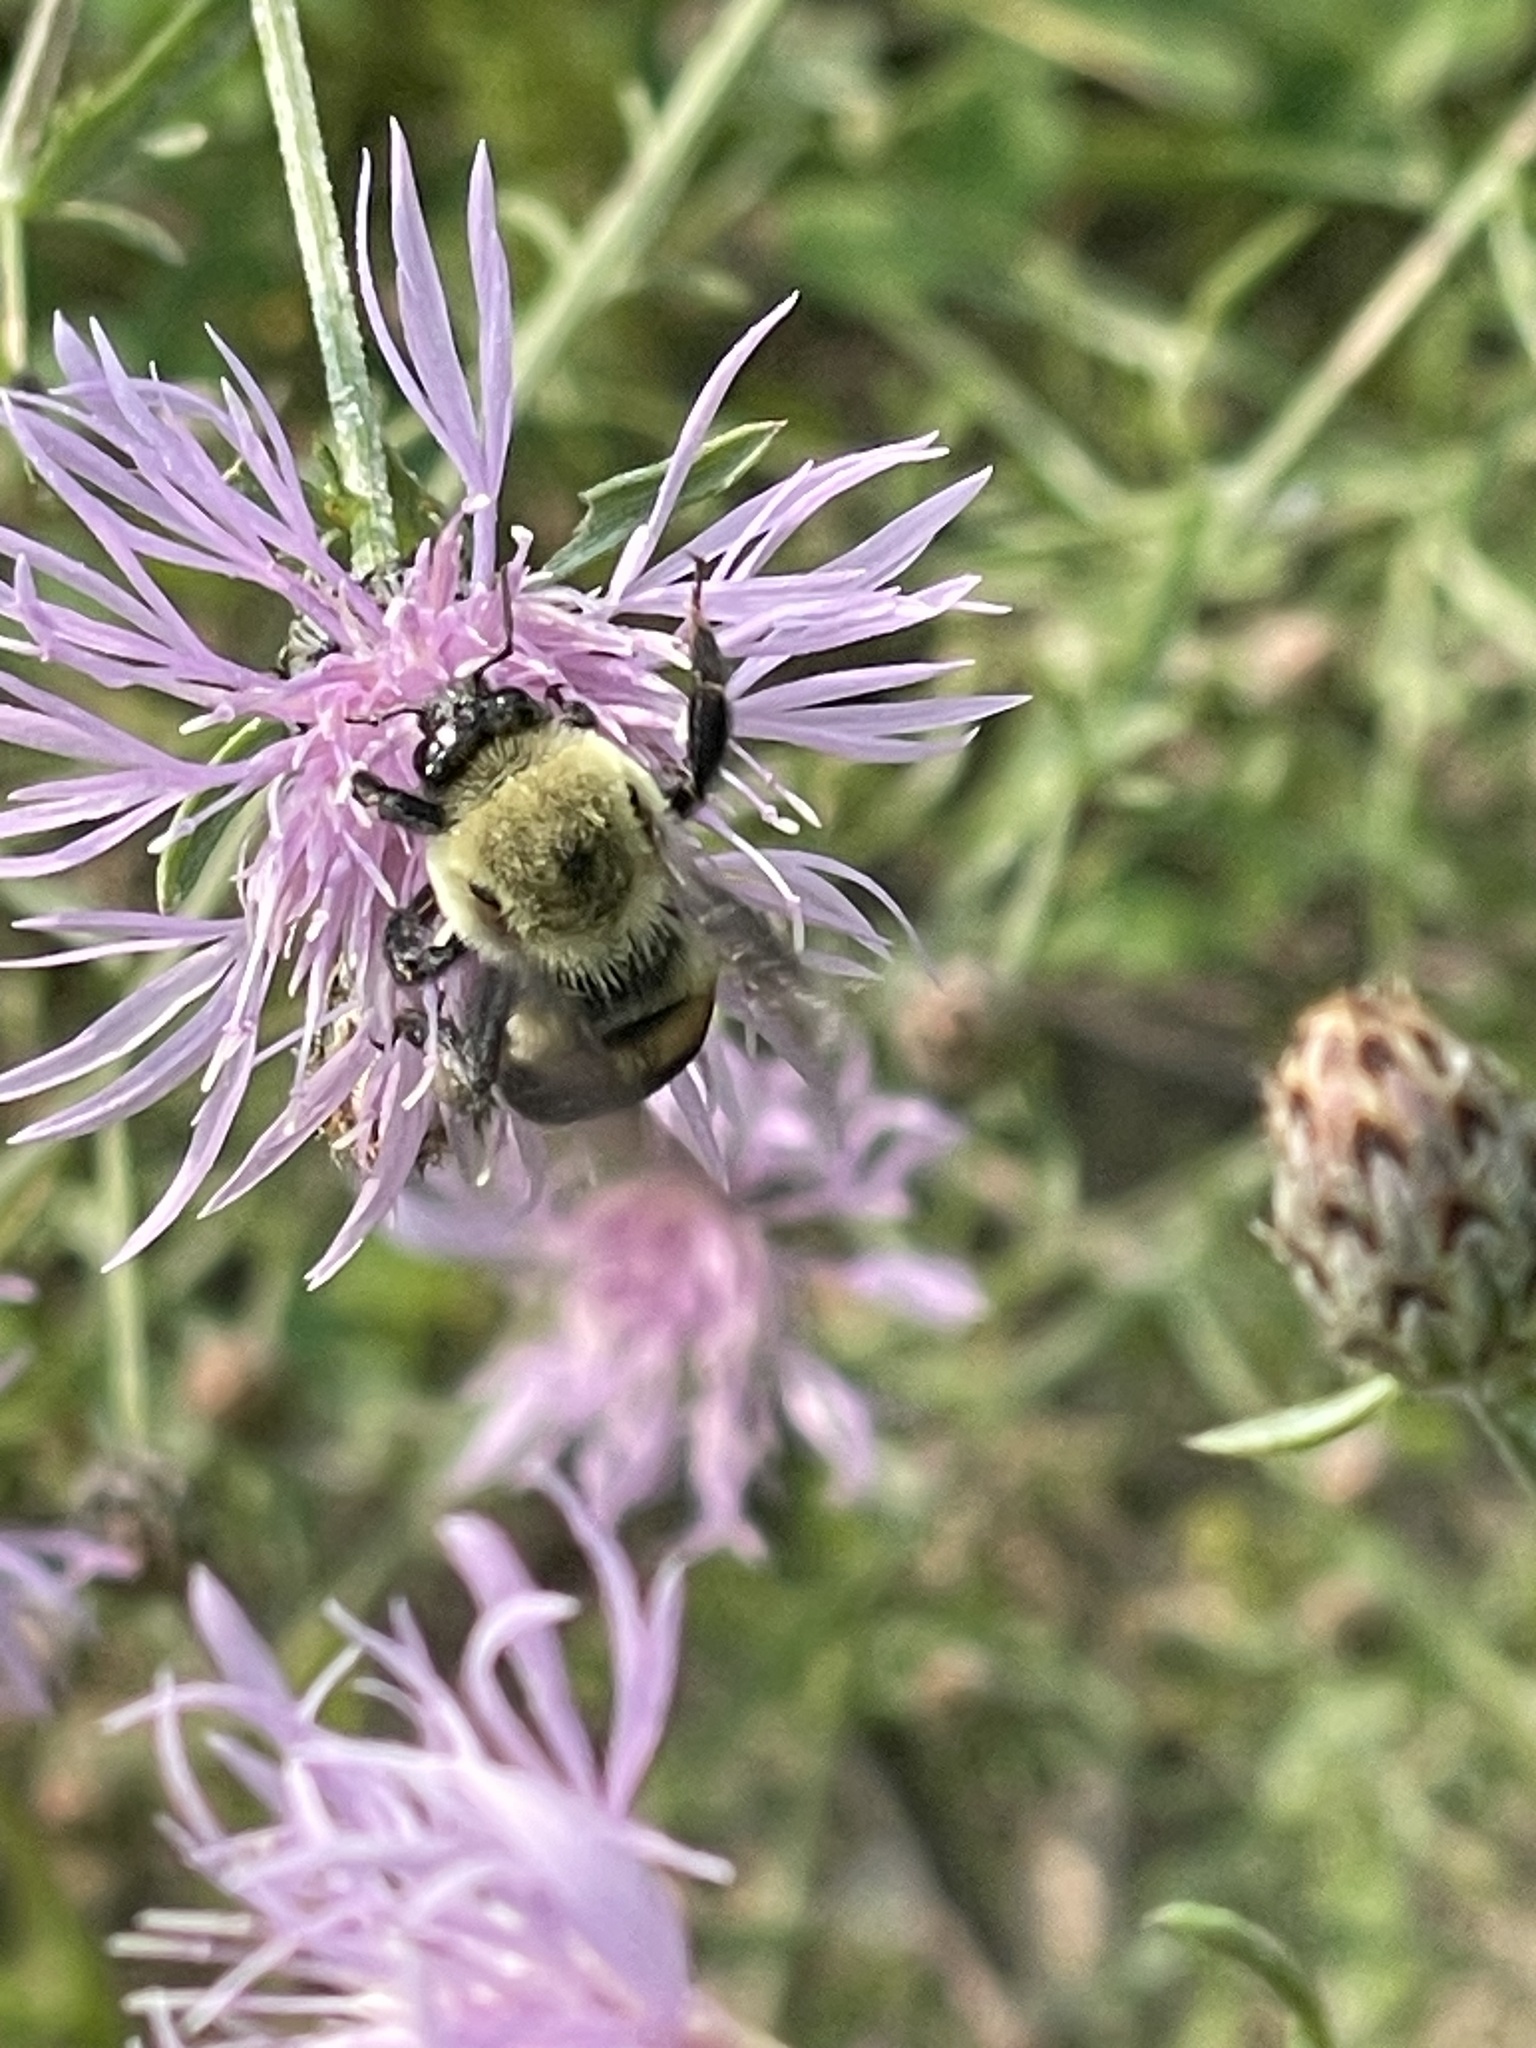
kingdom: Animalia
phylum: Arthropoda
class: Insecta
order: Hymenoptera
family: Apidae
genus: Bombus
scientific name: Bombus griseocollis
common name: Brown-belted bumble bee
